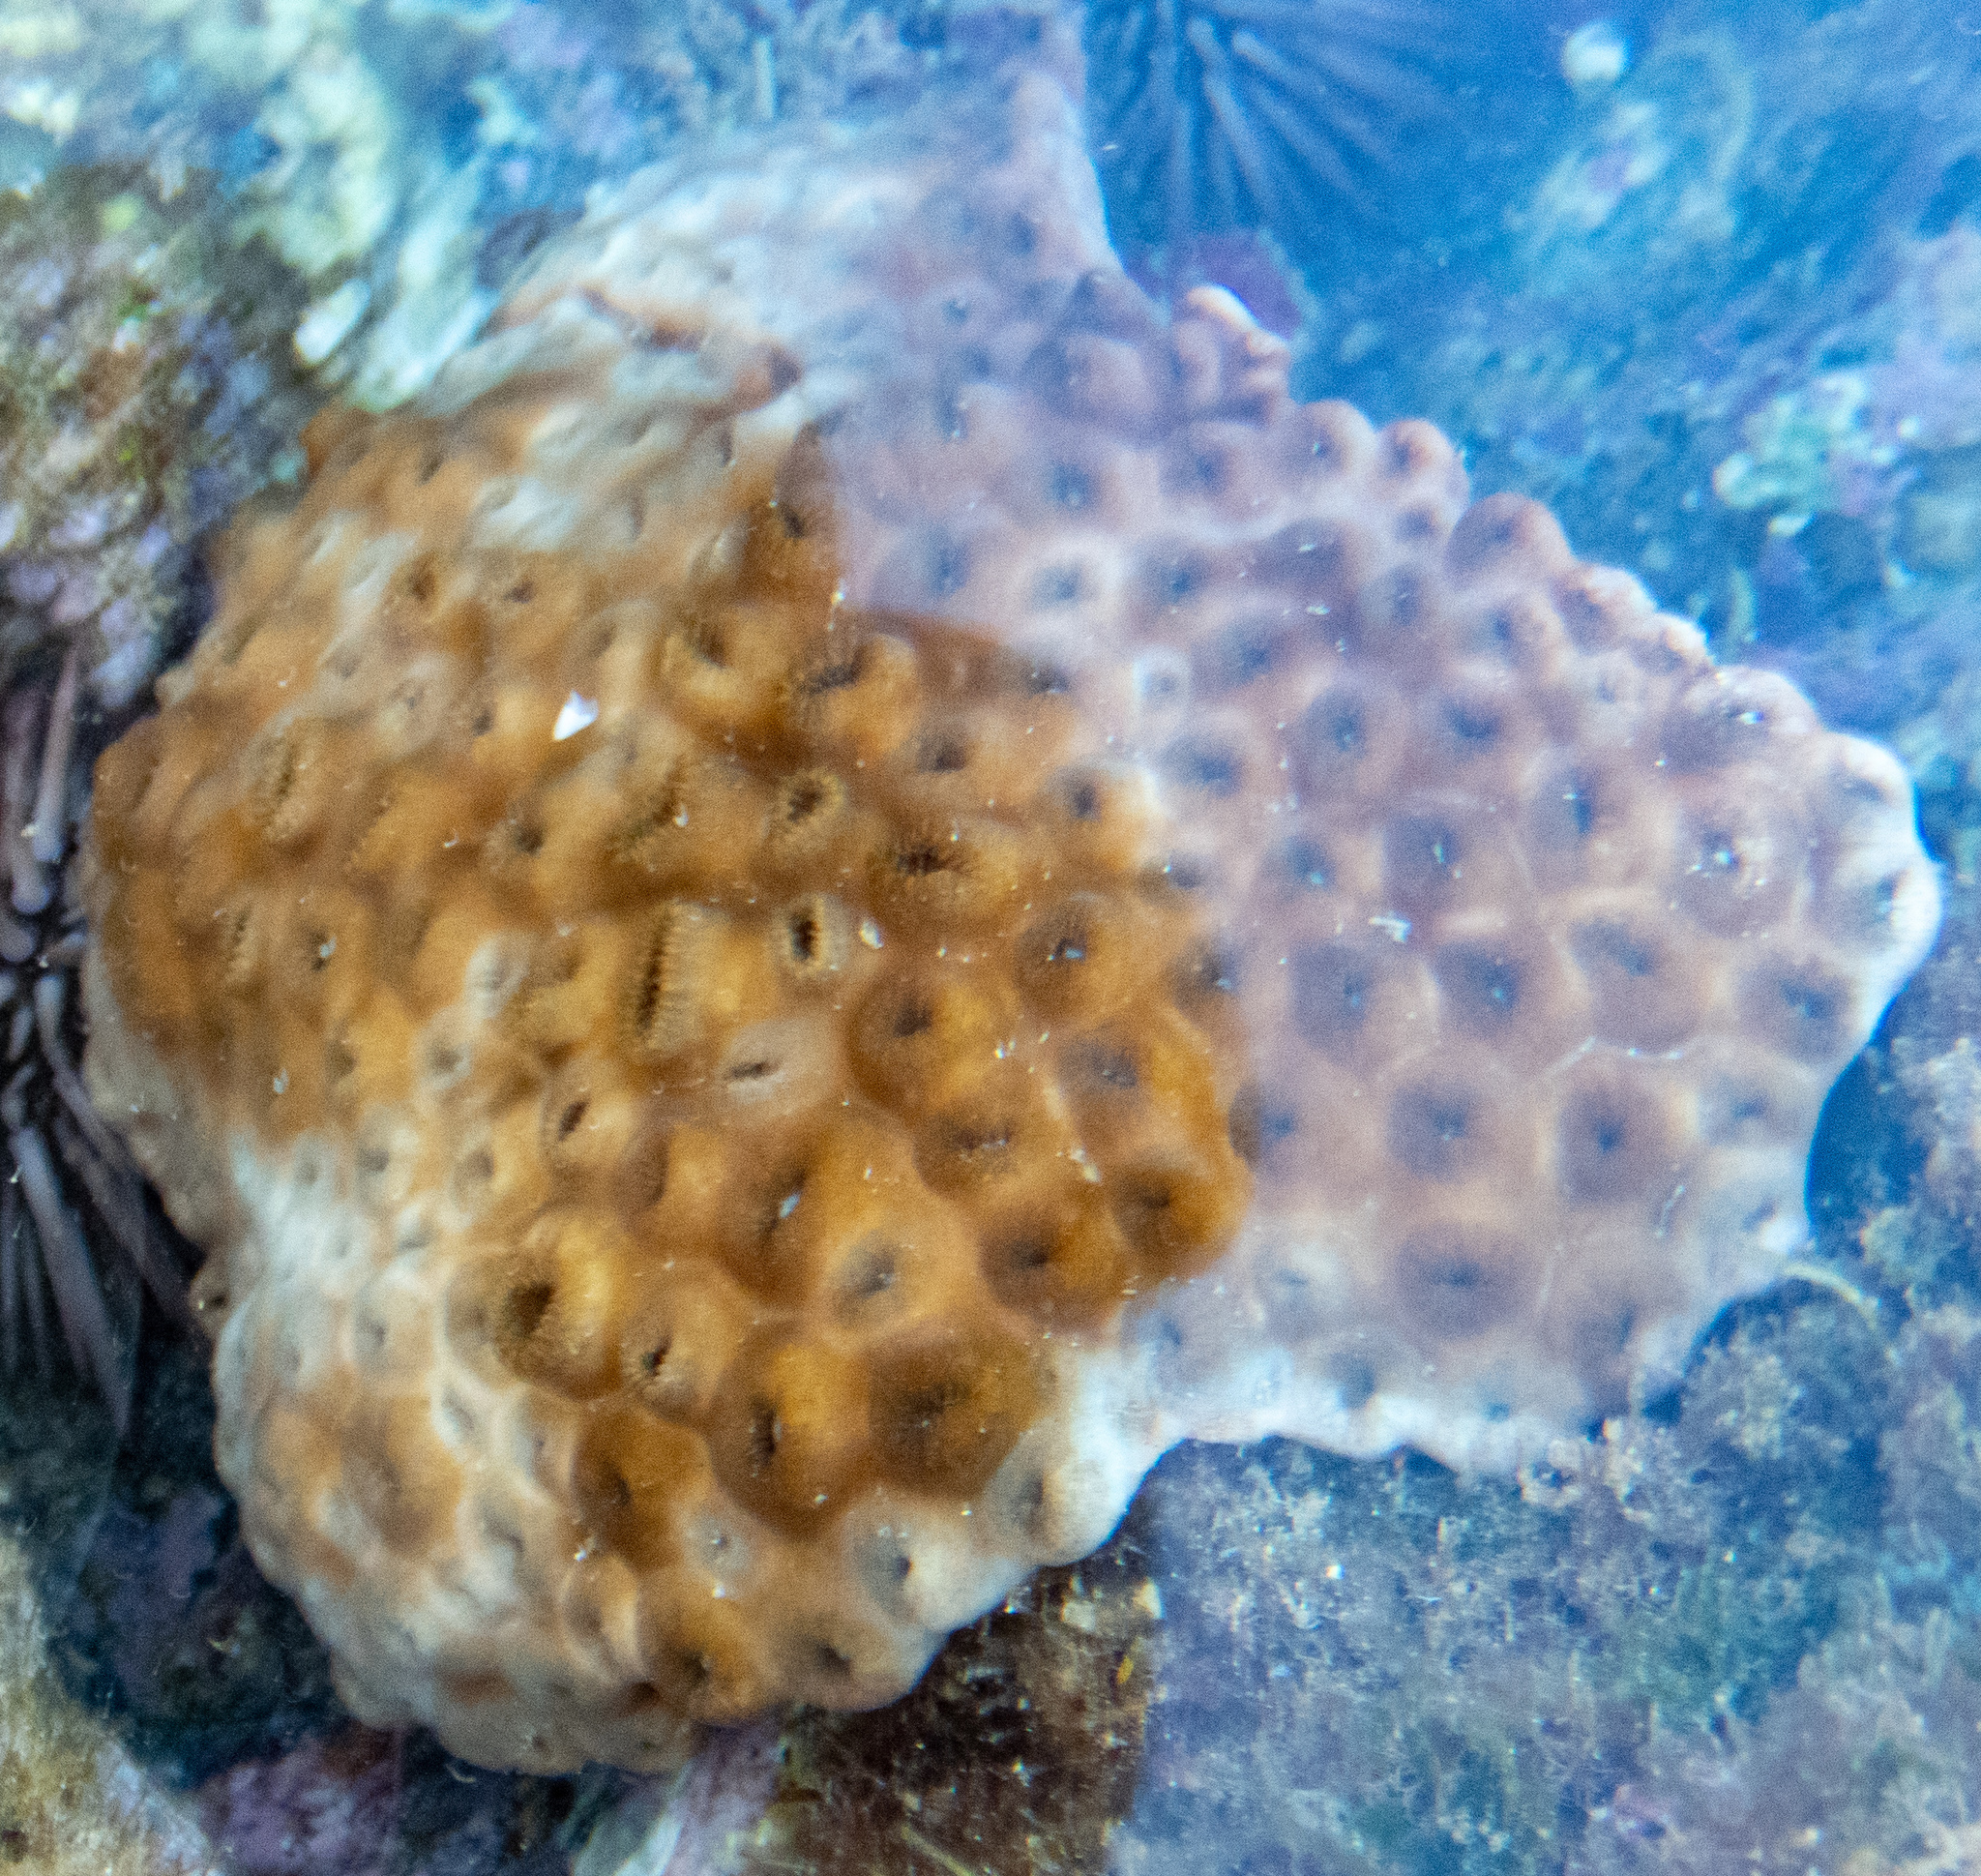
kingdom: Animalia
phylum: Cnidaria
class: Anthozoa
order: Zoantharia
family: Sphenopidae
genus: Palythoa
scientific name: Palythoa tuberculosa
